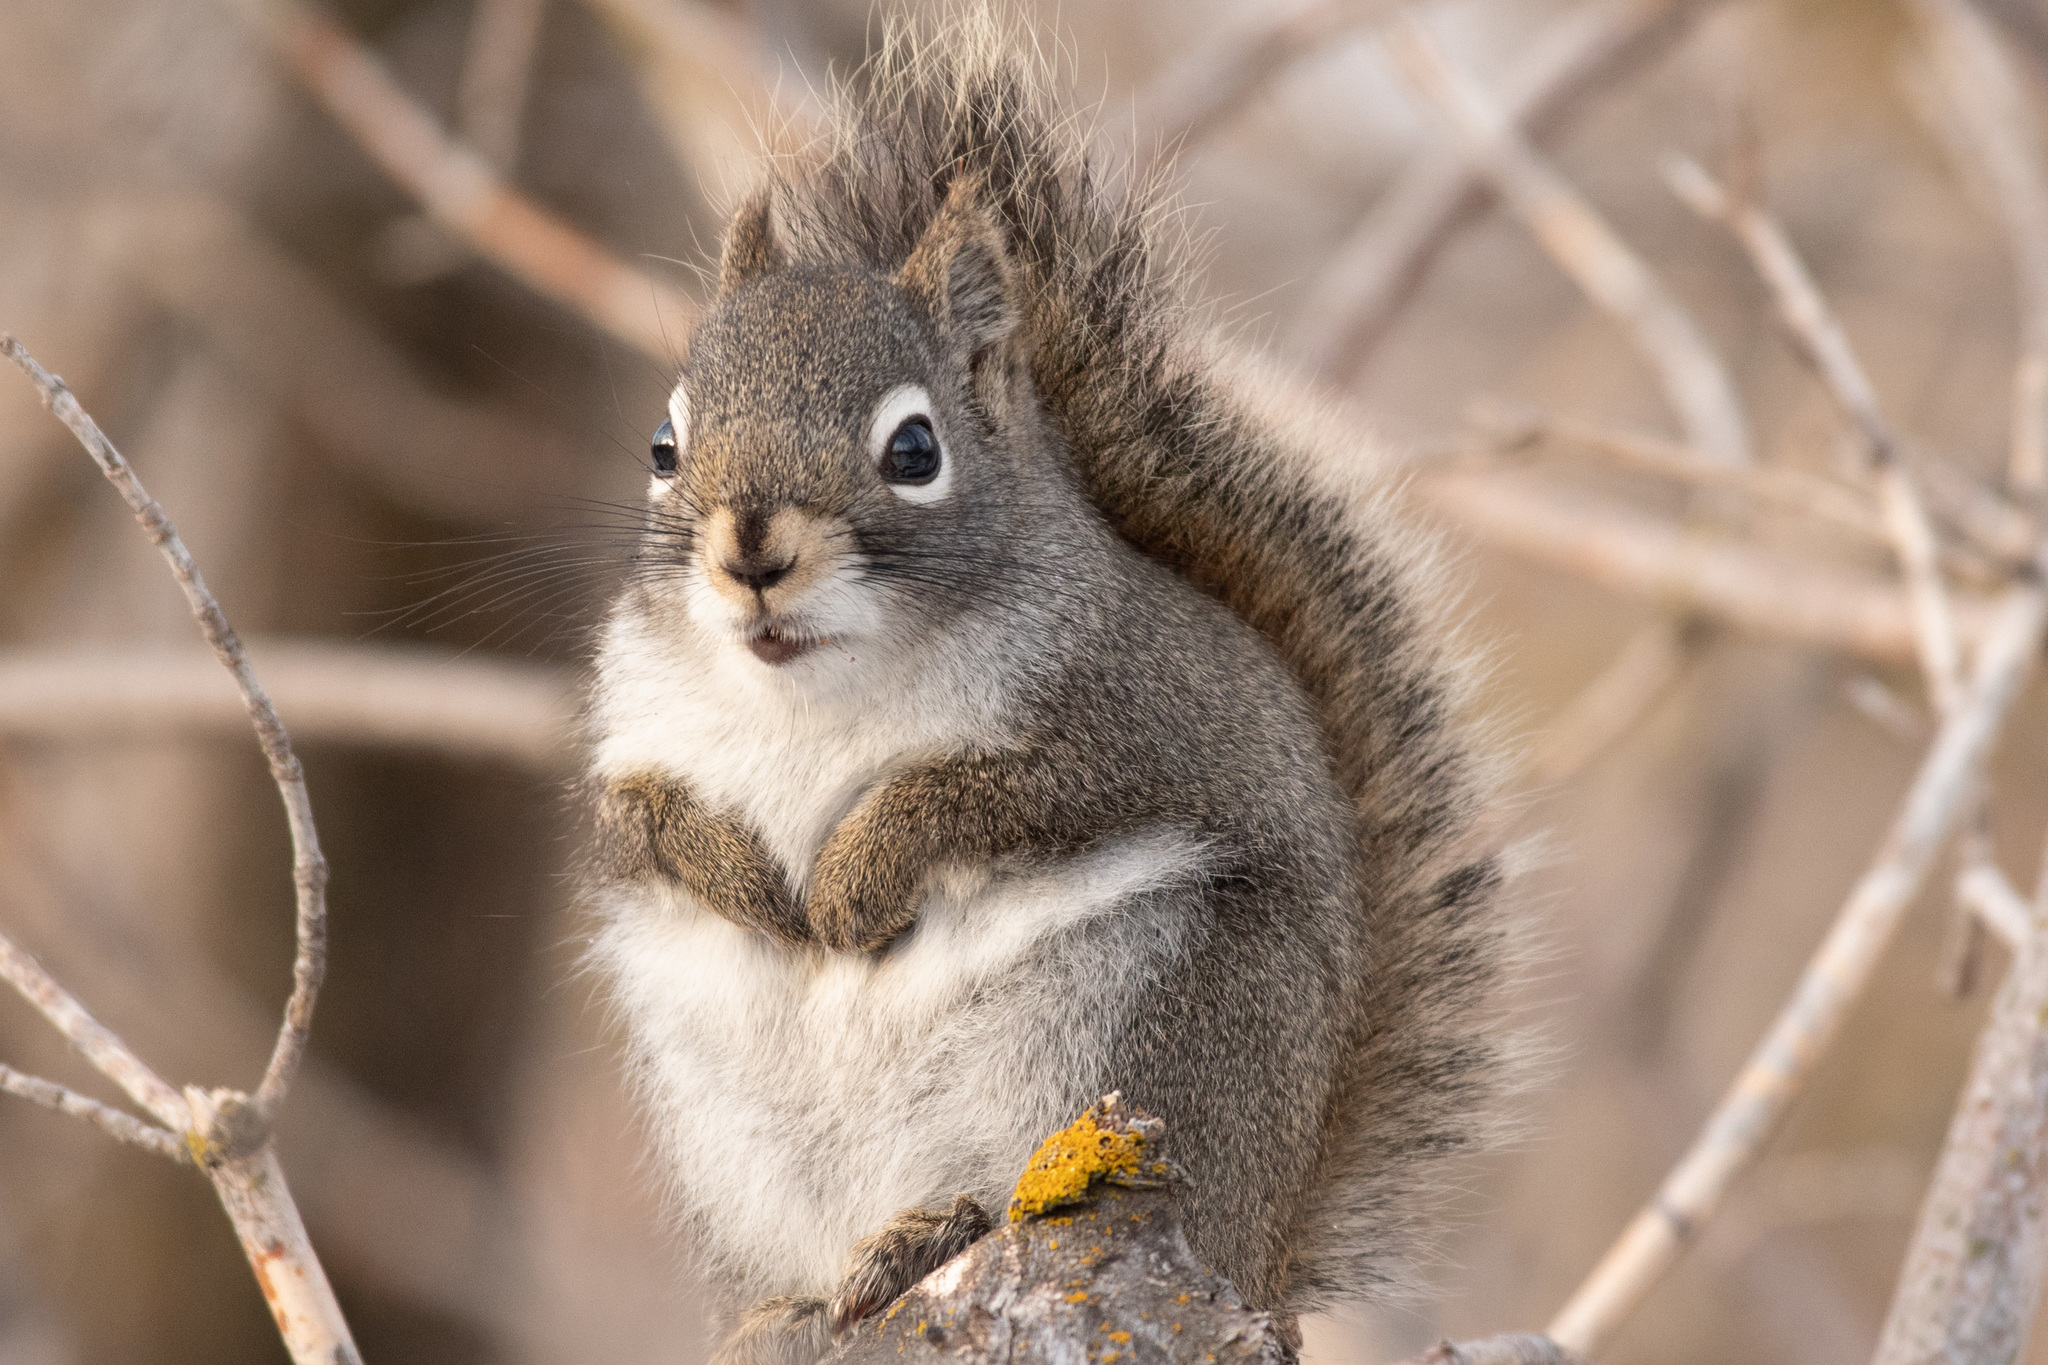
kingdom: Animalia
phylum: Chordata
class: Mammalia
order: Rodentia
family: Sciuridae
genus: Tamiasciurus
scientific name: Tamiasciurus hudsonicus
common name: Red squirrel
